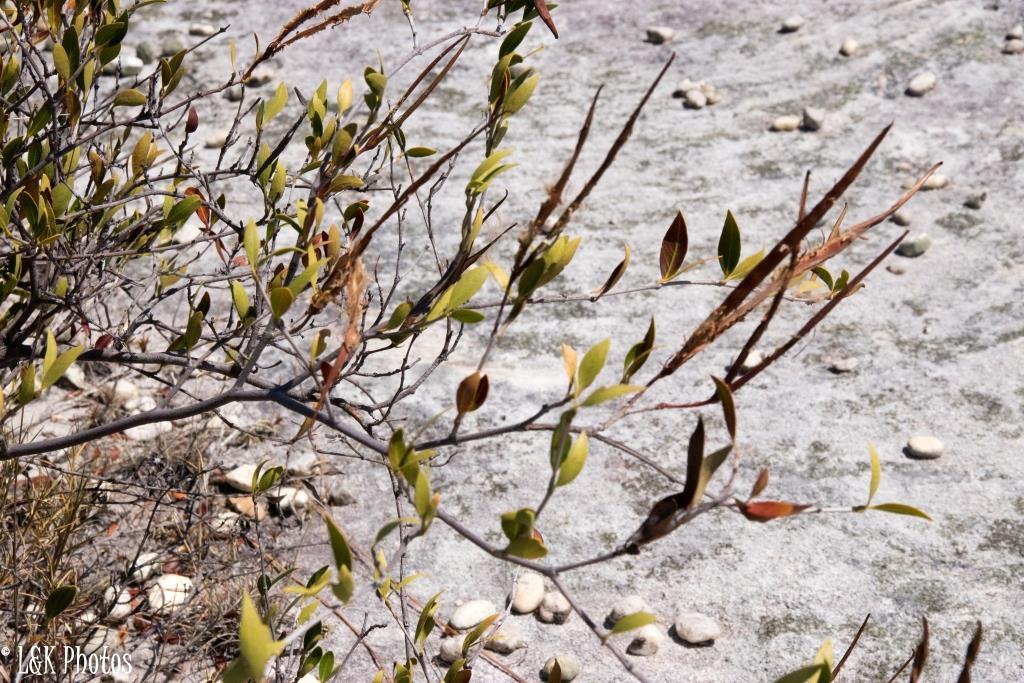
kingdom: Plantae
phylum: Tracheophyta
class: Magnoliopsida
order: Gentianales
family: Apocynaceae
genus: Mascarenhasia
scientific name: Mascarenhasia lisianthiflora
